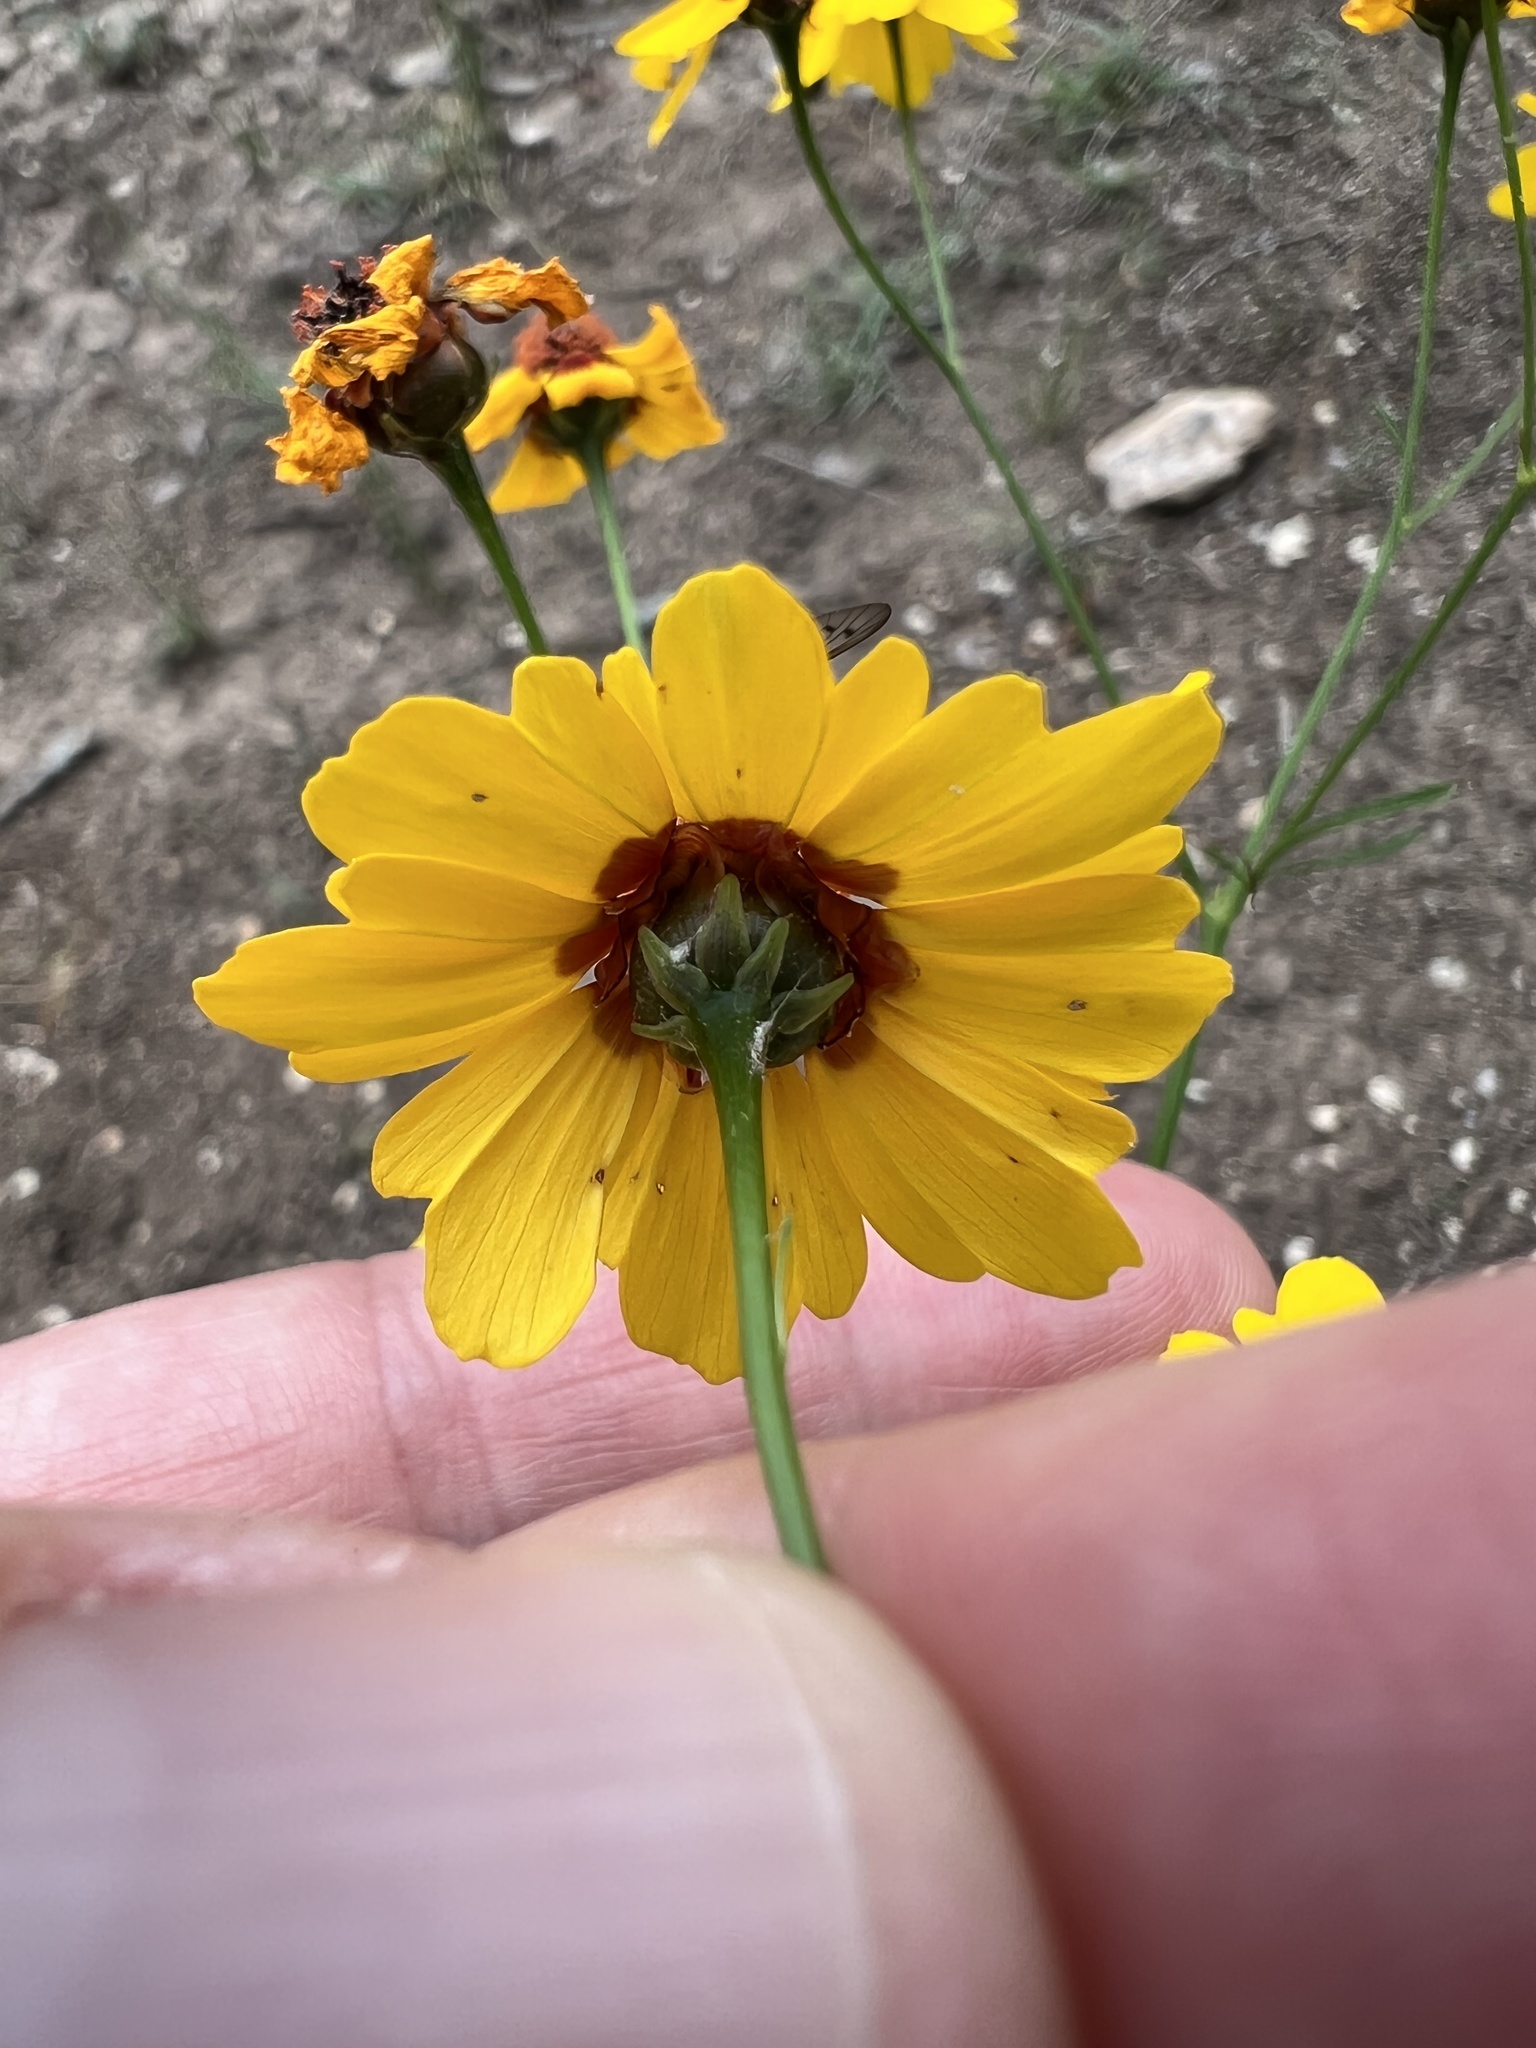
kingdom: Plantae
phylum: Tracheophyta
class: Magnoliopsida
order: Asterales
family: Asteraceae
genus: Coreopsis
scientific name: Coreopsis tinctoria
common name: Garden tickseed
